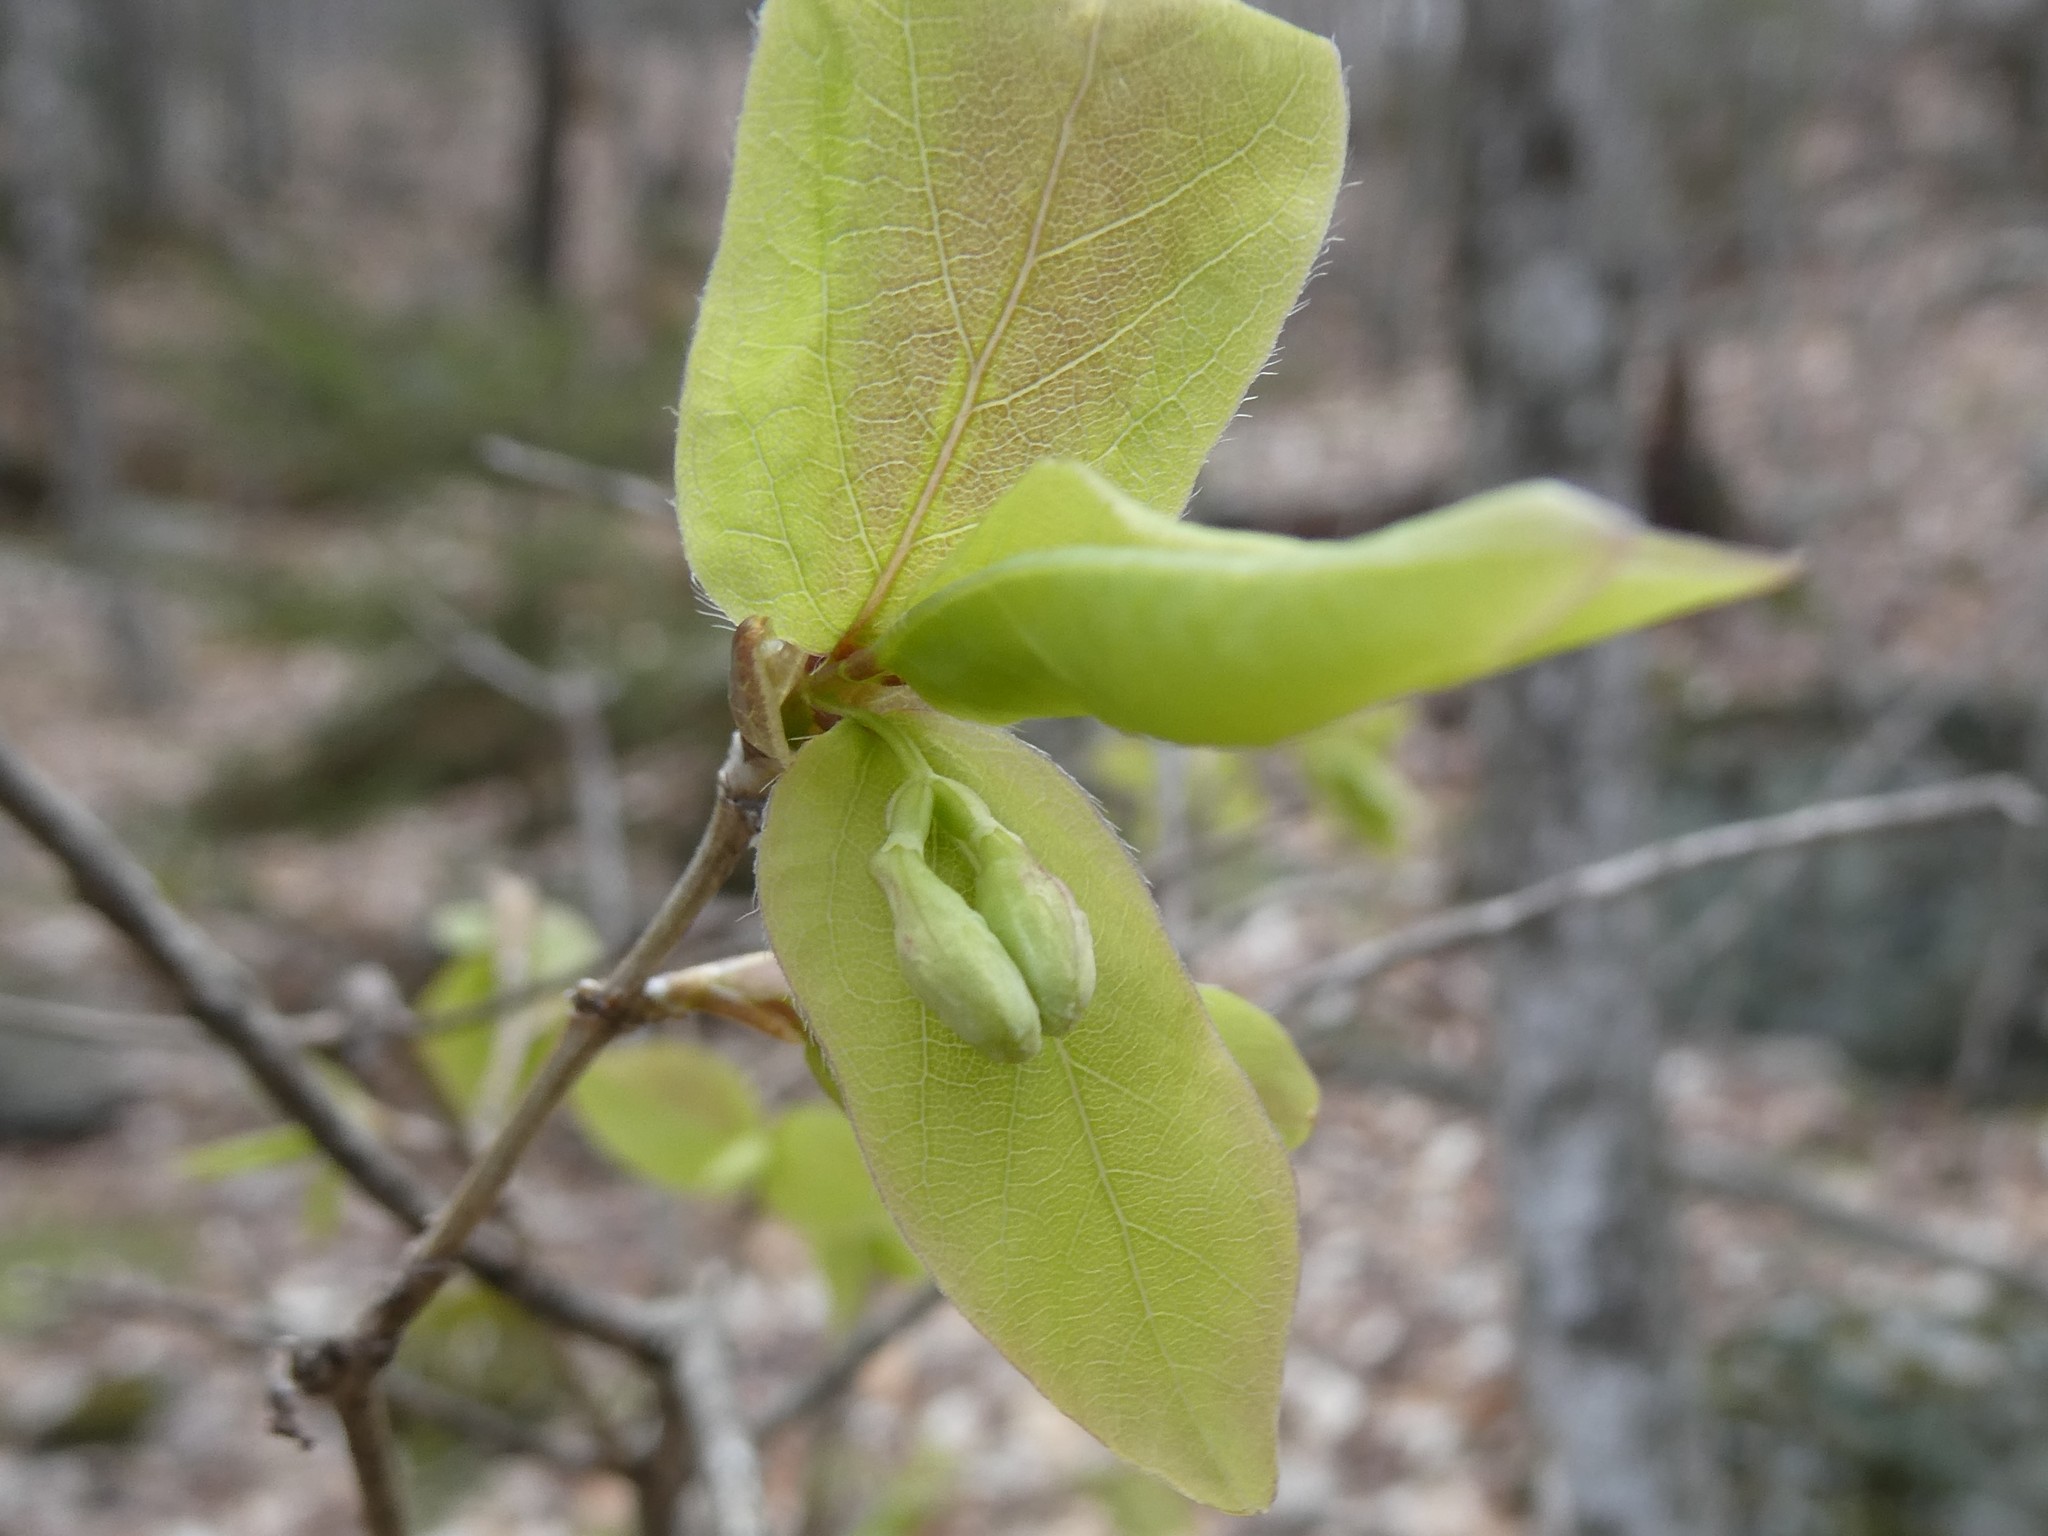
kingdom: Plantae
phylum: Tracheophyta
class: Magnoliopsida
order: Dipsacales
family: Caprifoliaceae
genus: Lonicera
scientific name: Lonicera canadensis
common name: American fly-honeysuckle
